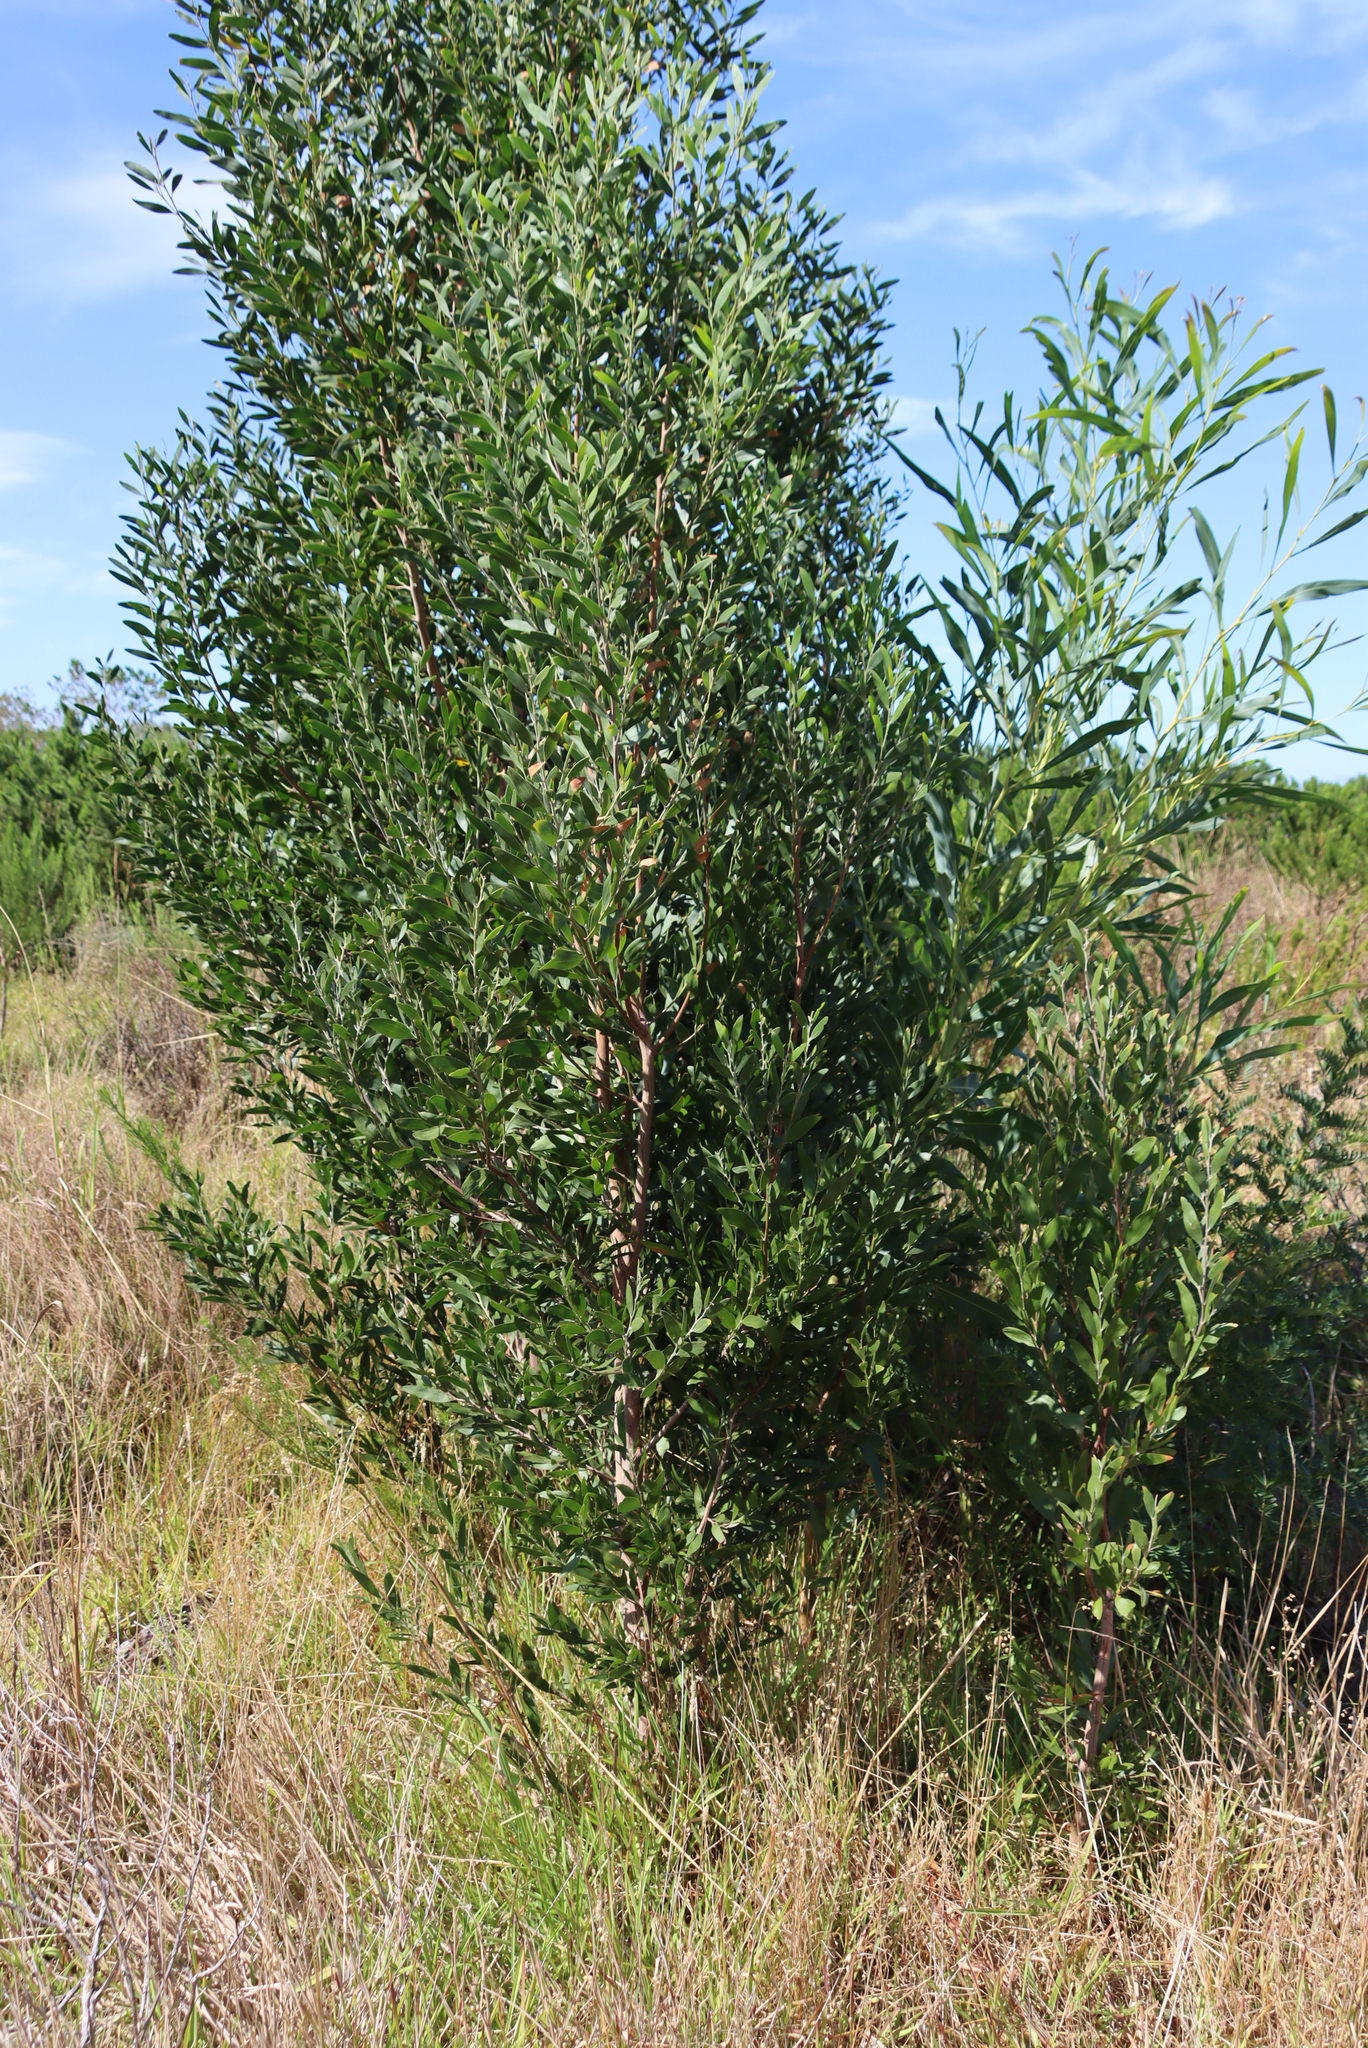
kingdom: Plantae
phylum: Tracheophyta
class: Magnoliopsida
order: Fabales
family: Fabaceae
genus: Acacia
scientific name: Acacia melanoxylon
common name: Blackwood
